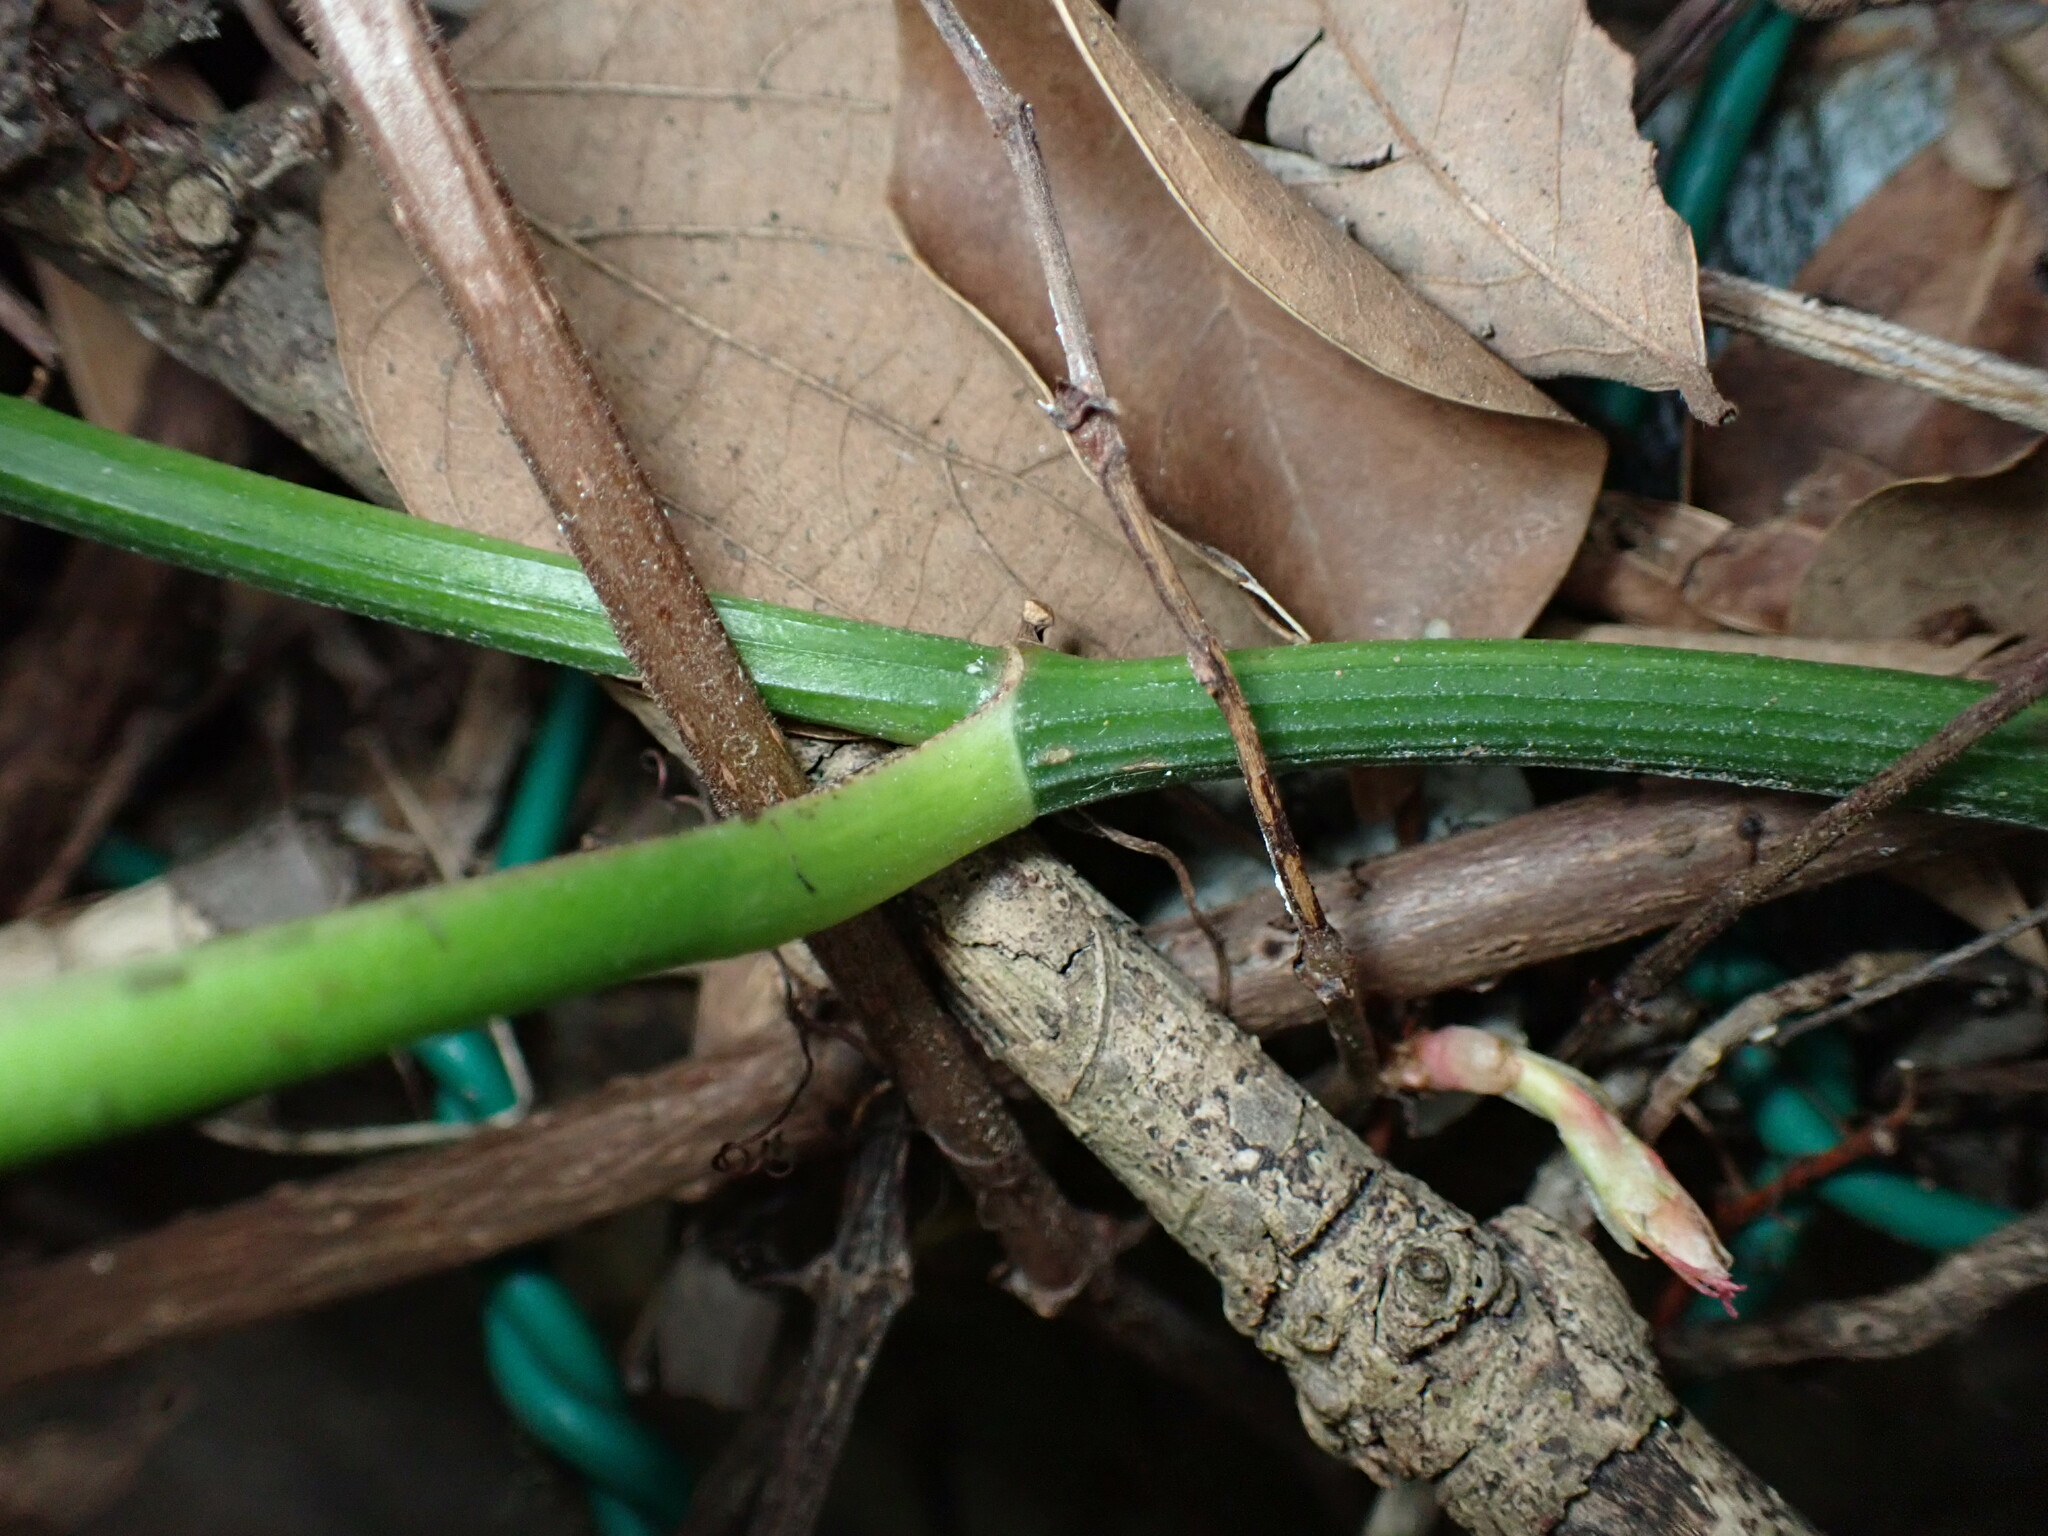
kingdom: Plantae
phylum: Tracheophyta
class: Liliopsida
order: Alismatales
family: Araceae
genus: Epipremnum
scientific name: Epipremnum aureum
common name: Golden hunter's-robe
